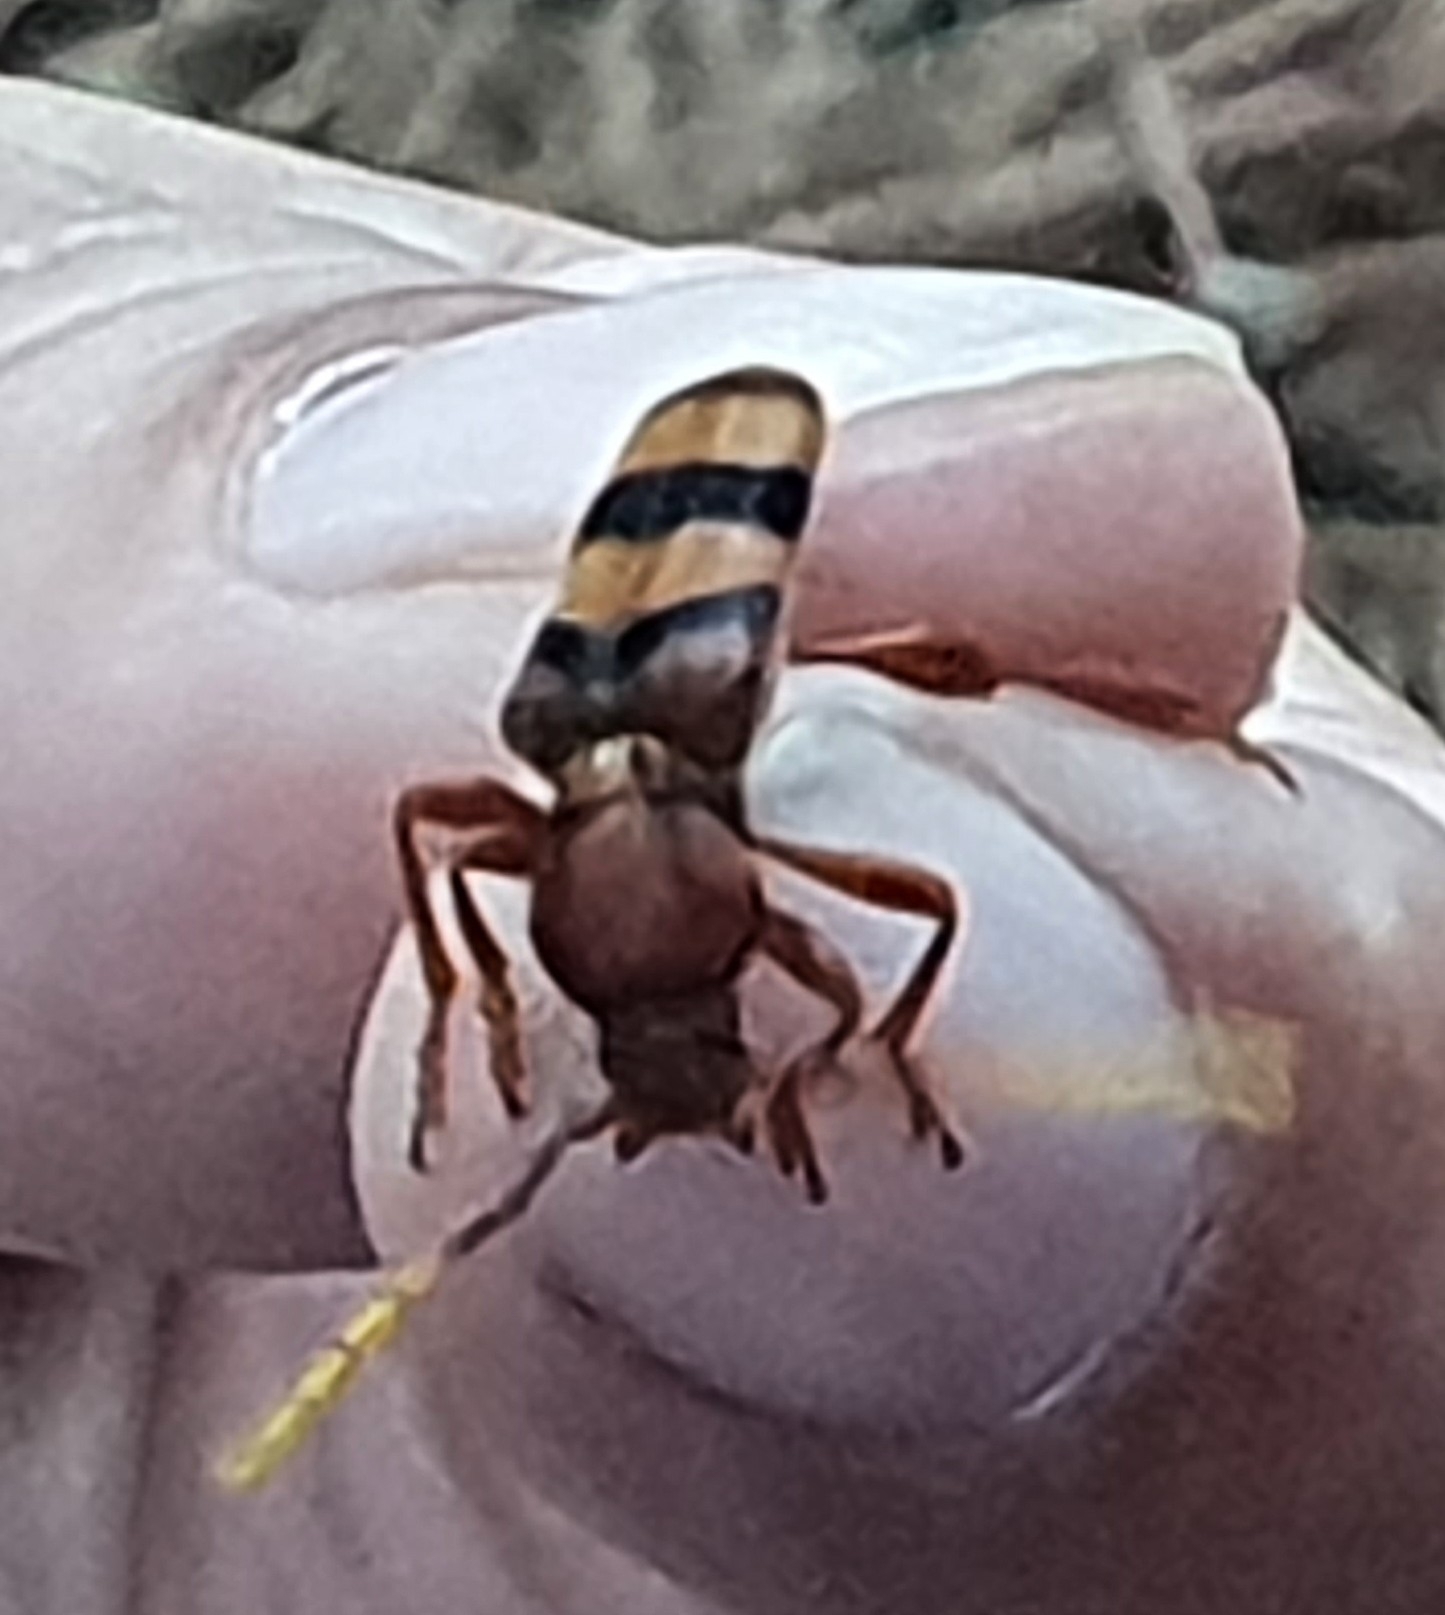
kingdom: Animalia
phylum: Arthropoda
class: Insecta
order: Coleoptera
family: Cerambycidae
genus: Dexithea
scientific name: Dexithea klugii
